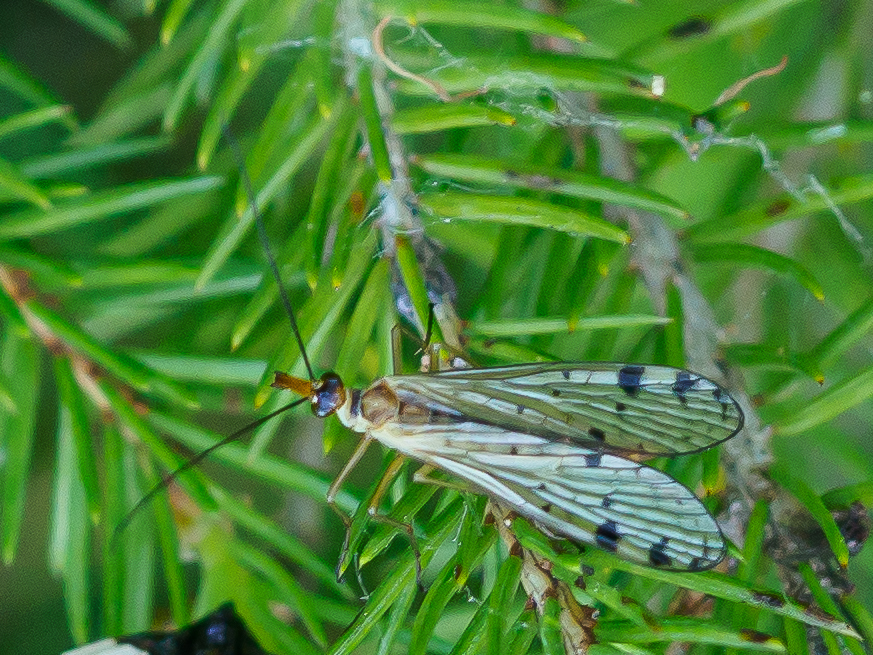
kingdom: Animalia
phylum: Arthropoda
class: Insecta
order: Mecoptera
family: Panorpidae
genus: Panorpa
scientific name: Panorpa alpina
